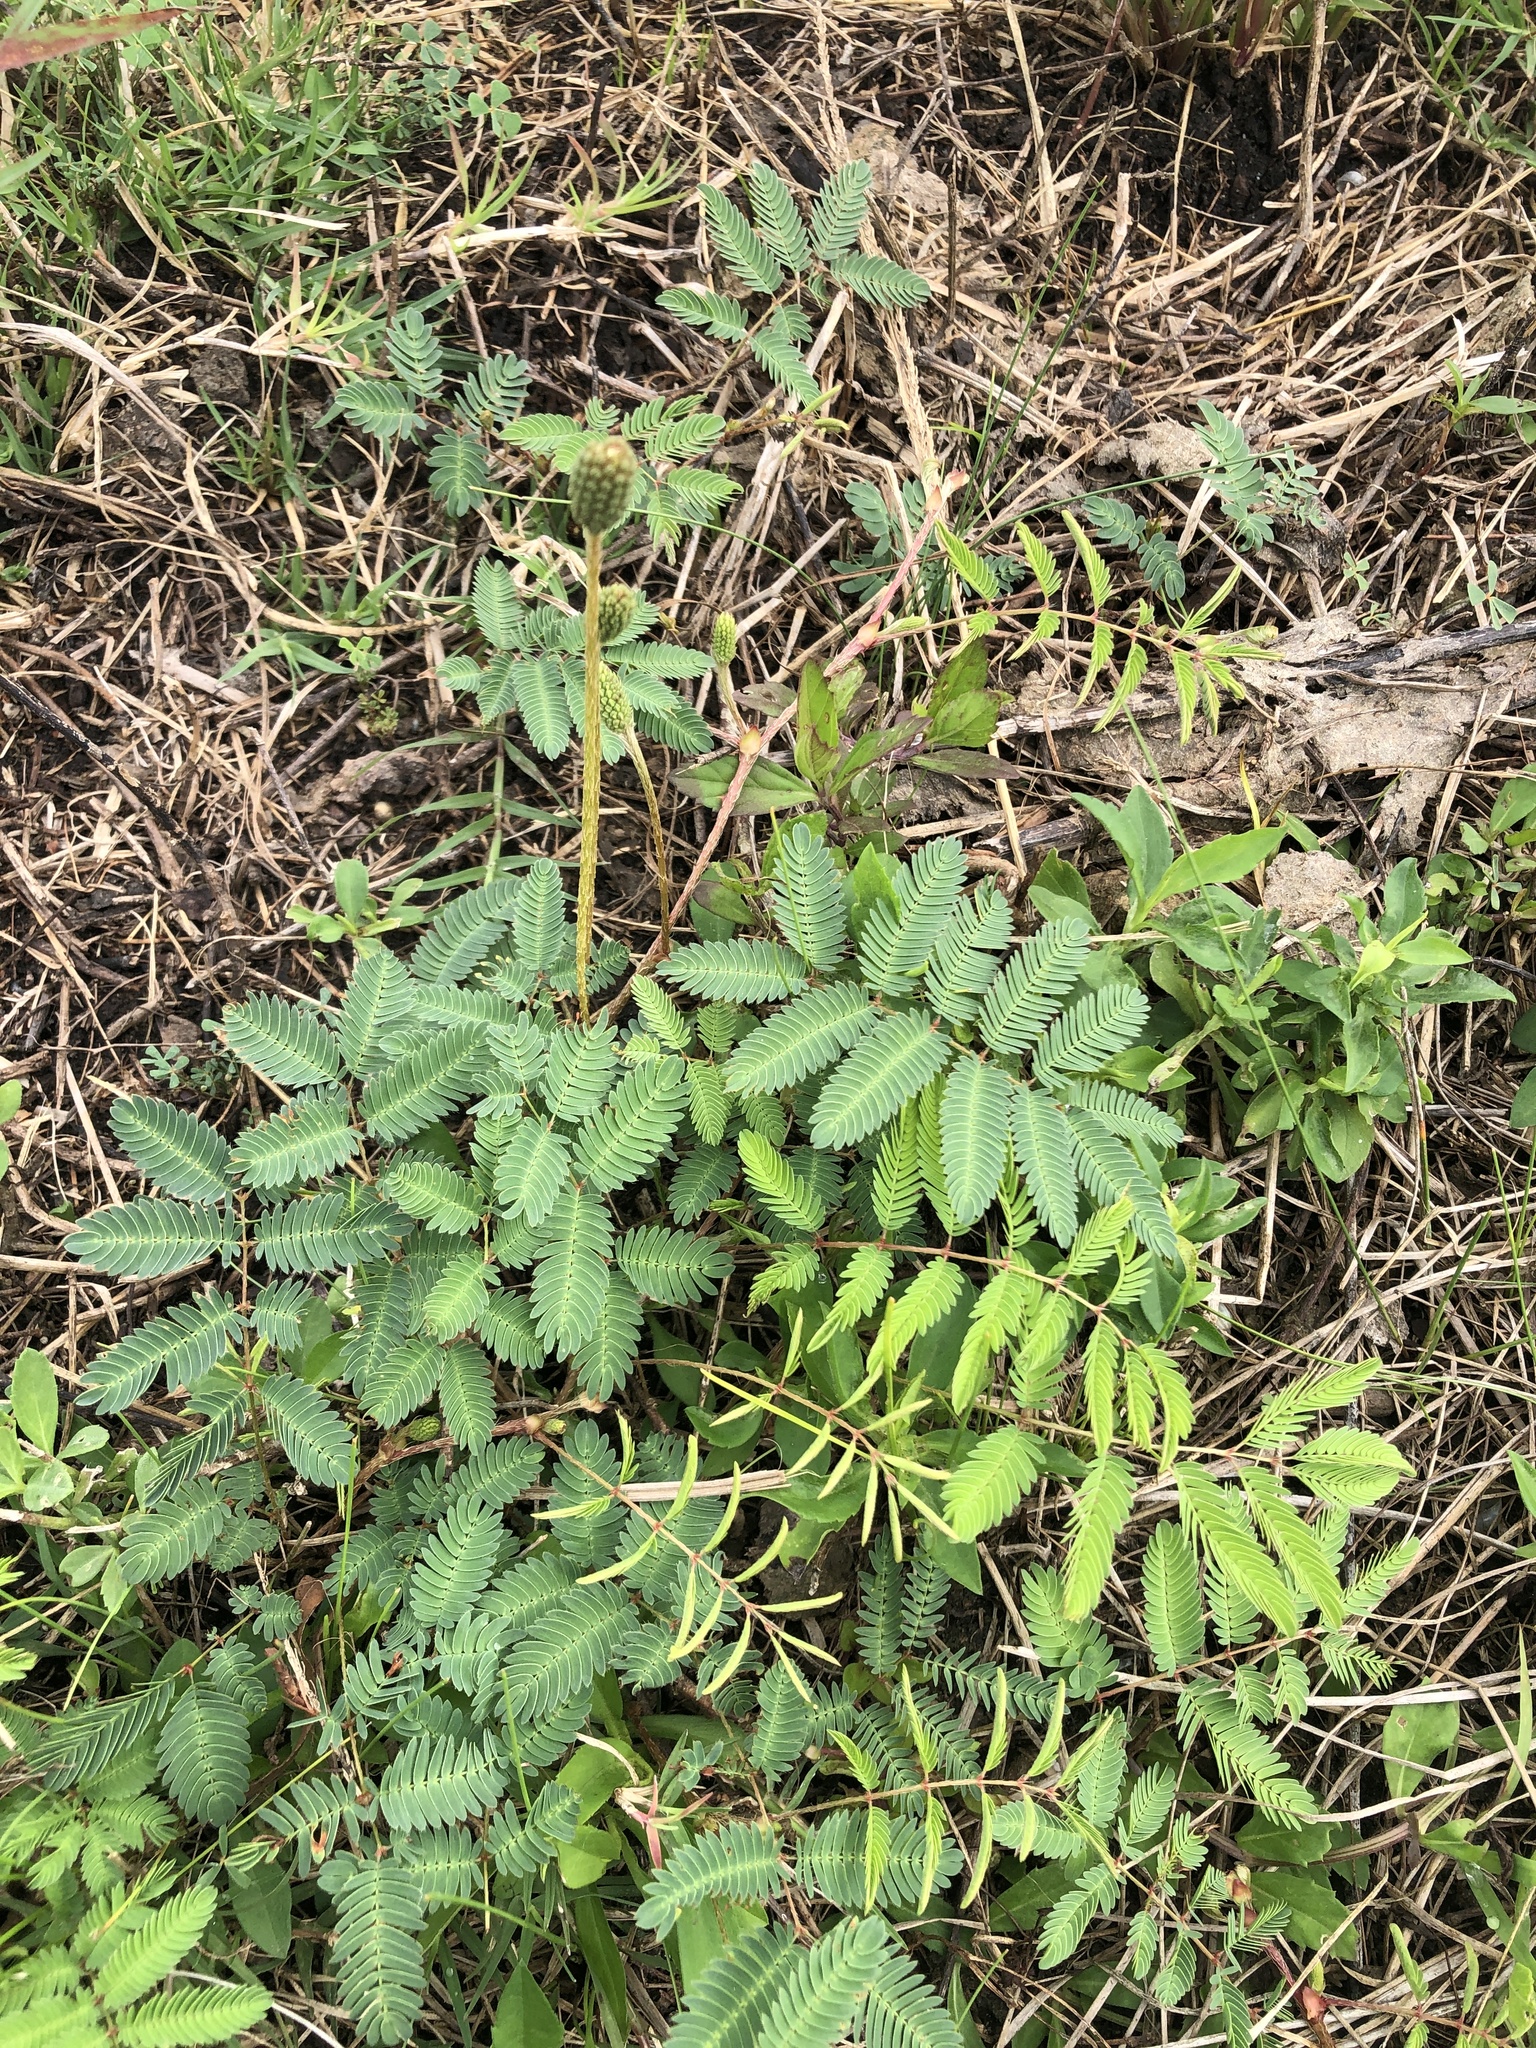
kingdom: Plantae
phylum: Tracheophyta
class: Magnoliopsida
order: Fabales
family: Fabaceae
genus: Mimosa
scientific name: Mimosa strigillosa
